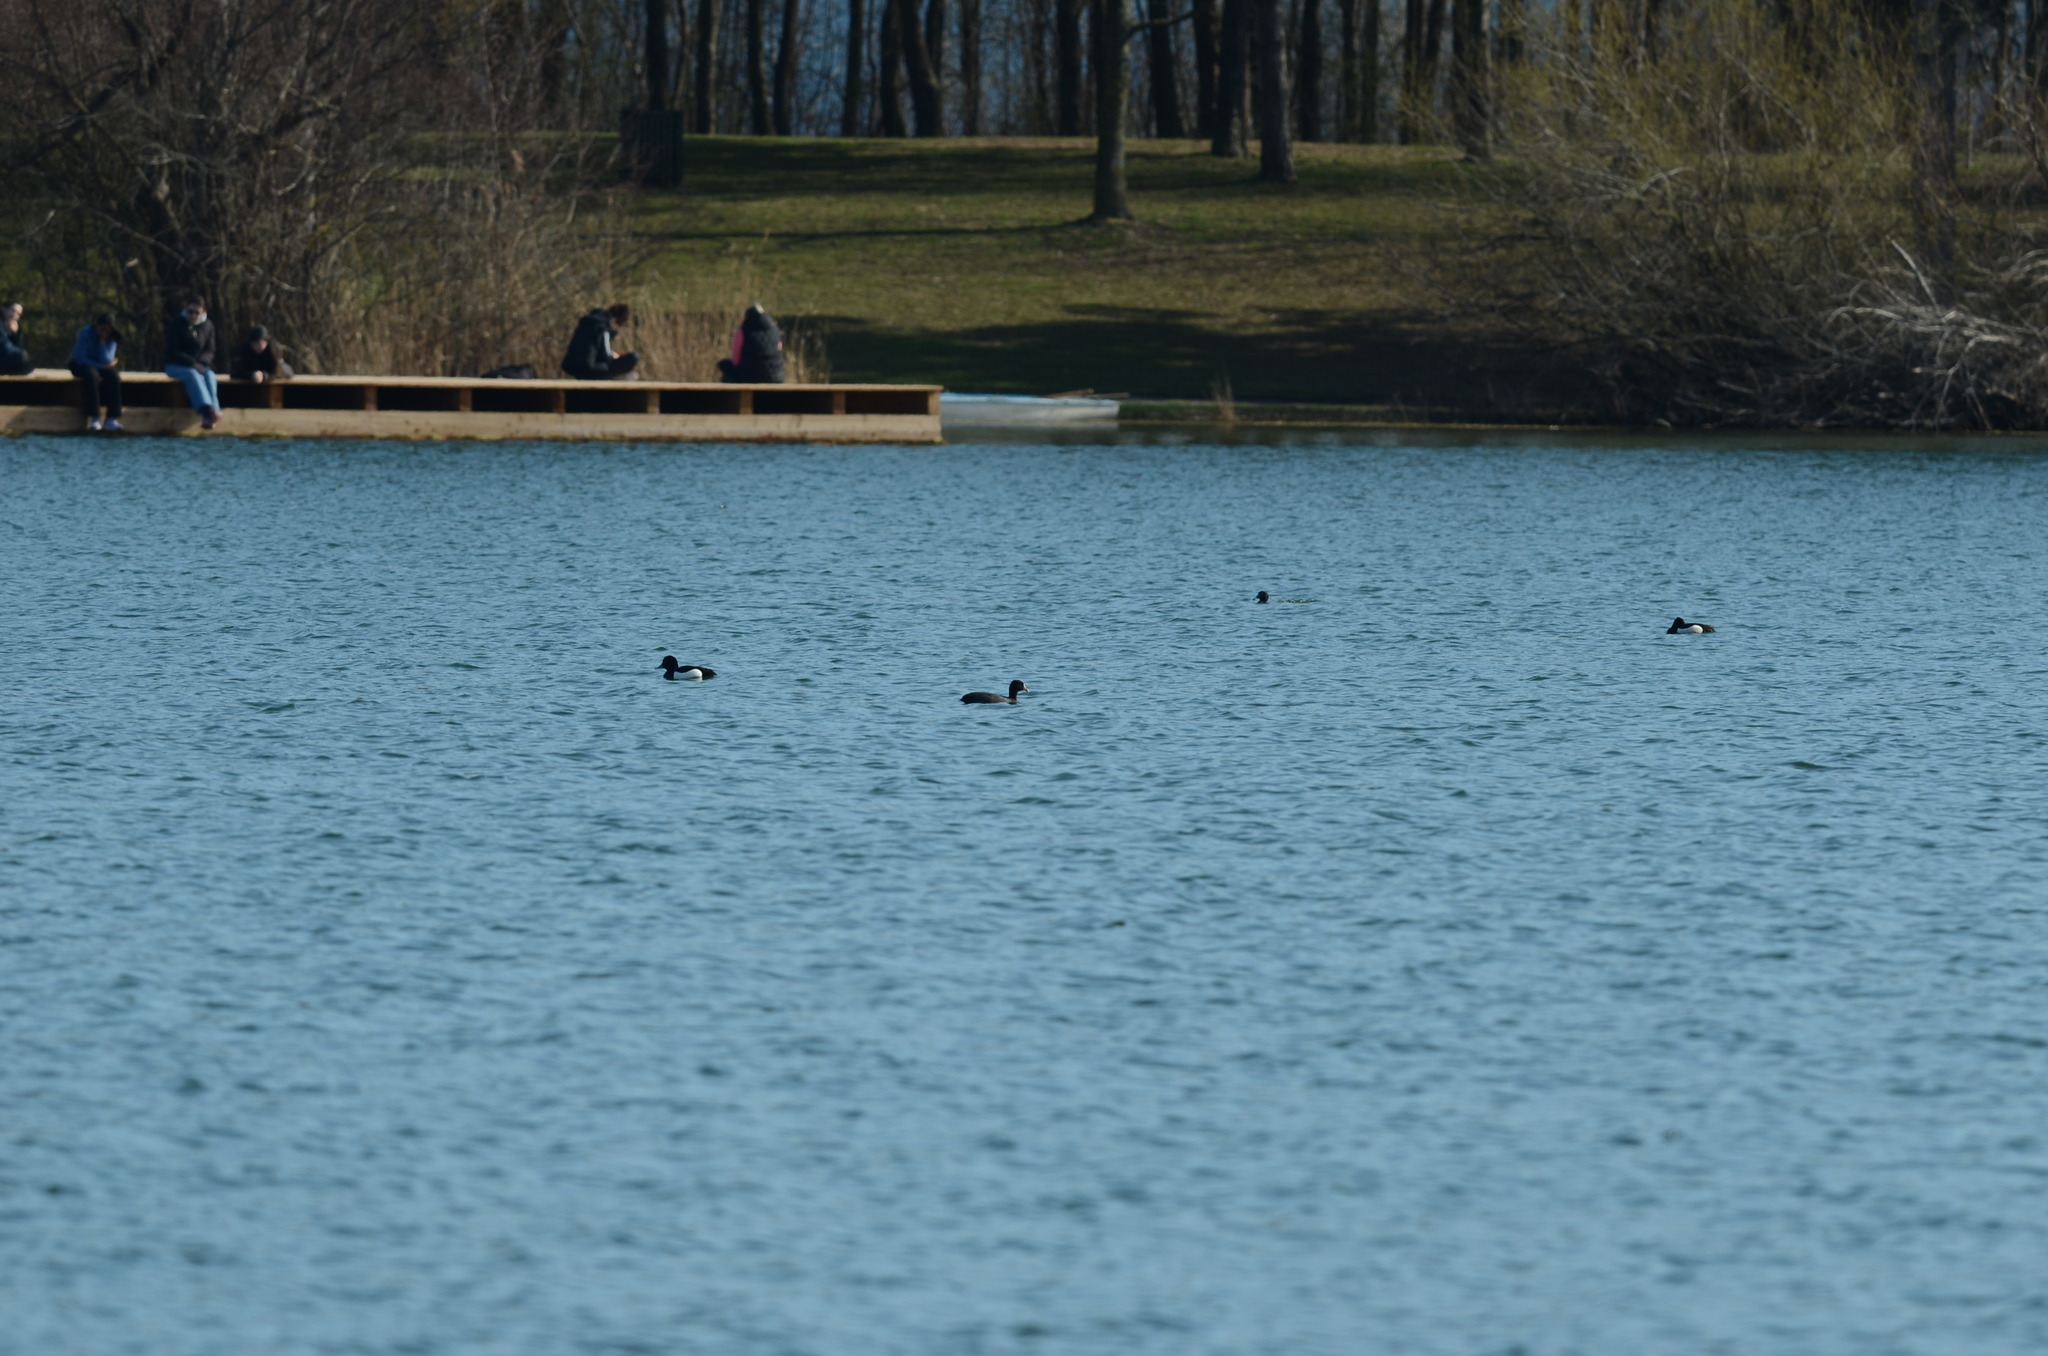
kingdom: Animalia
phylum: Chordata
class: Aves
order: Anseriformes
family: Anatidae
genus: Aythya
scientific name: Aythya fuligula
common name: Tufted duck
